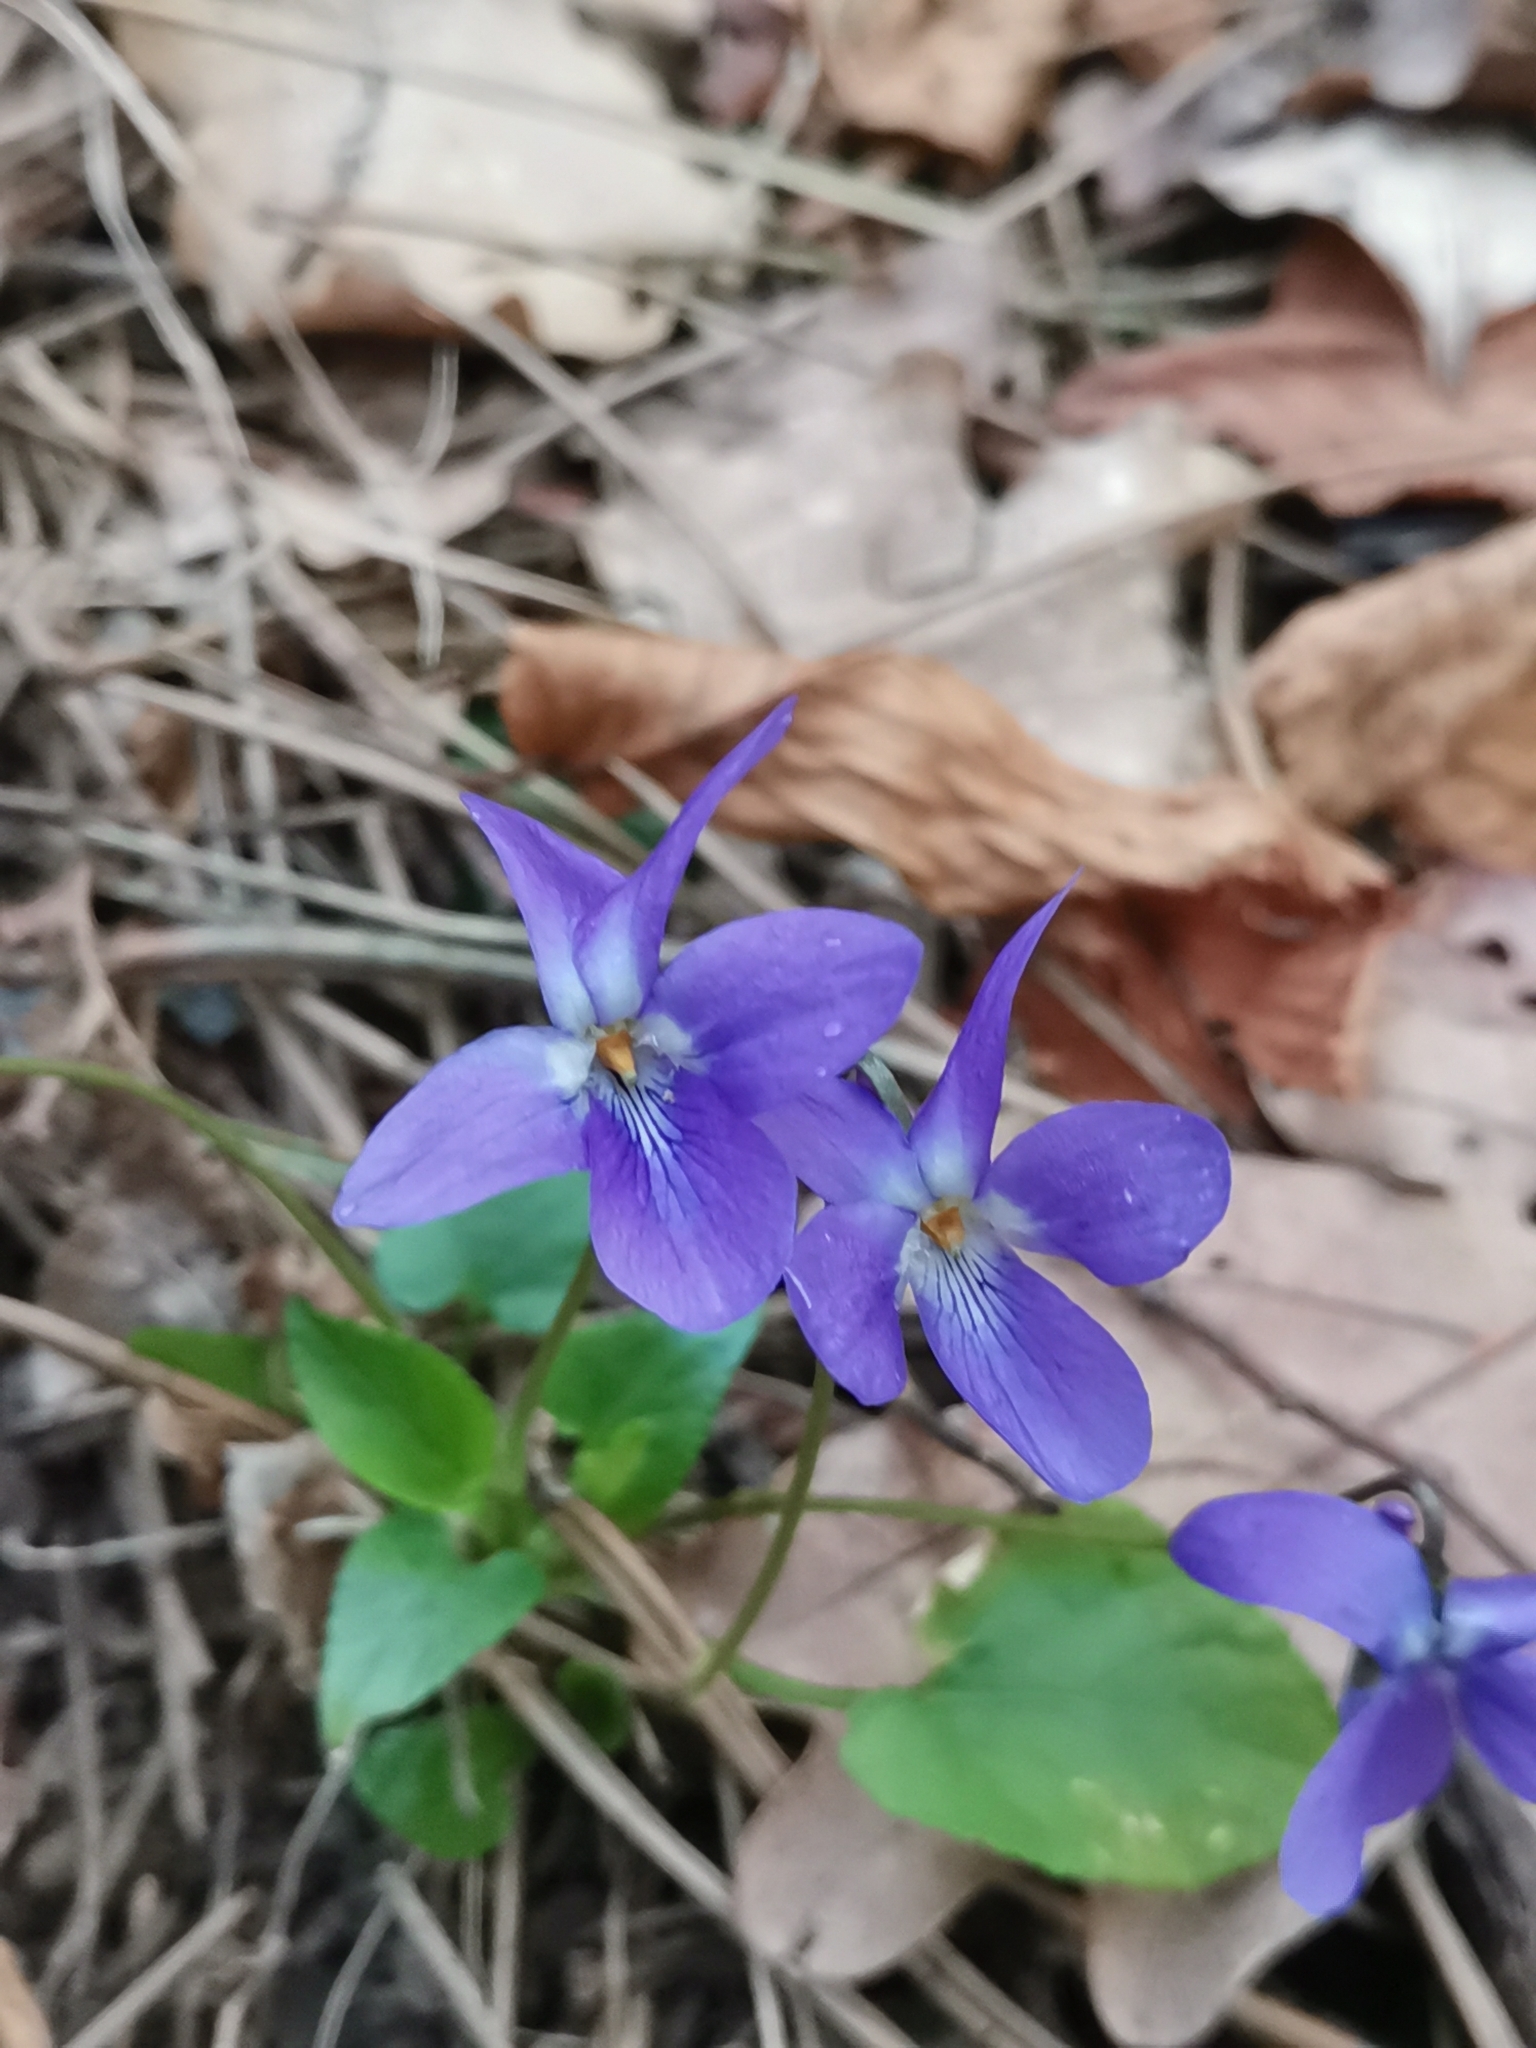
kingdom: Plantae
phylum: Tracheophyta
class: Magnoliopsida
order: Malpighiales
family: Violaceae
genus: Viola
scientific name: Viola suavis
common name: Russian violet
